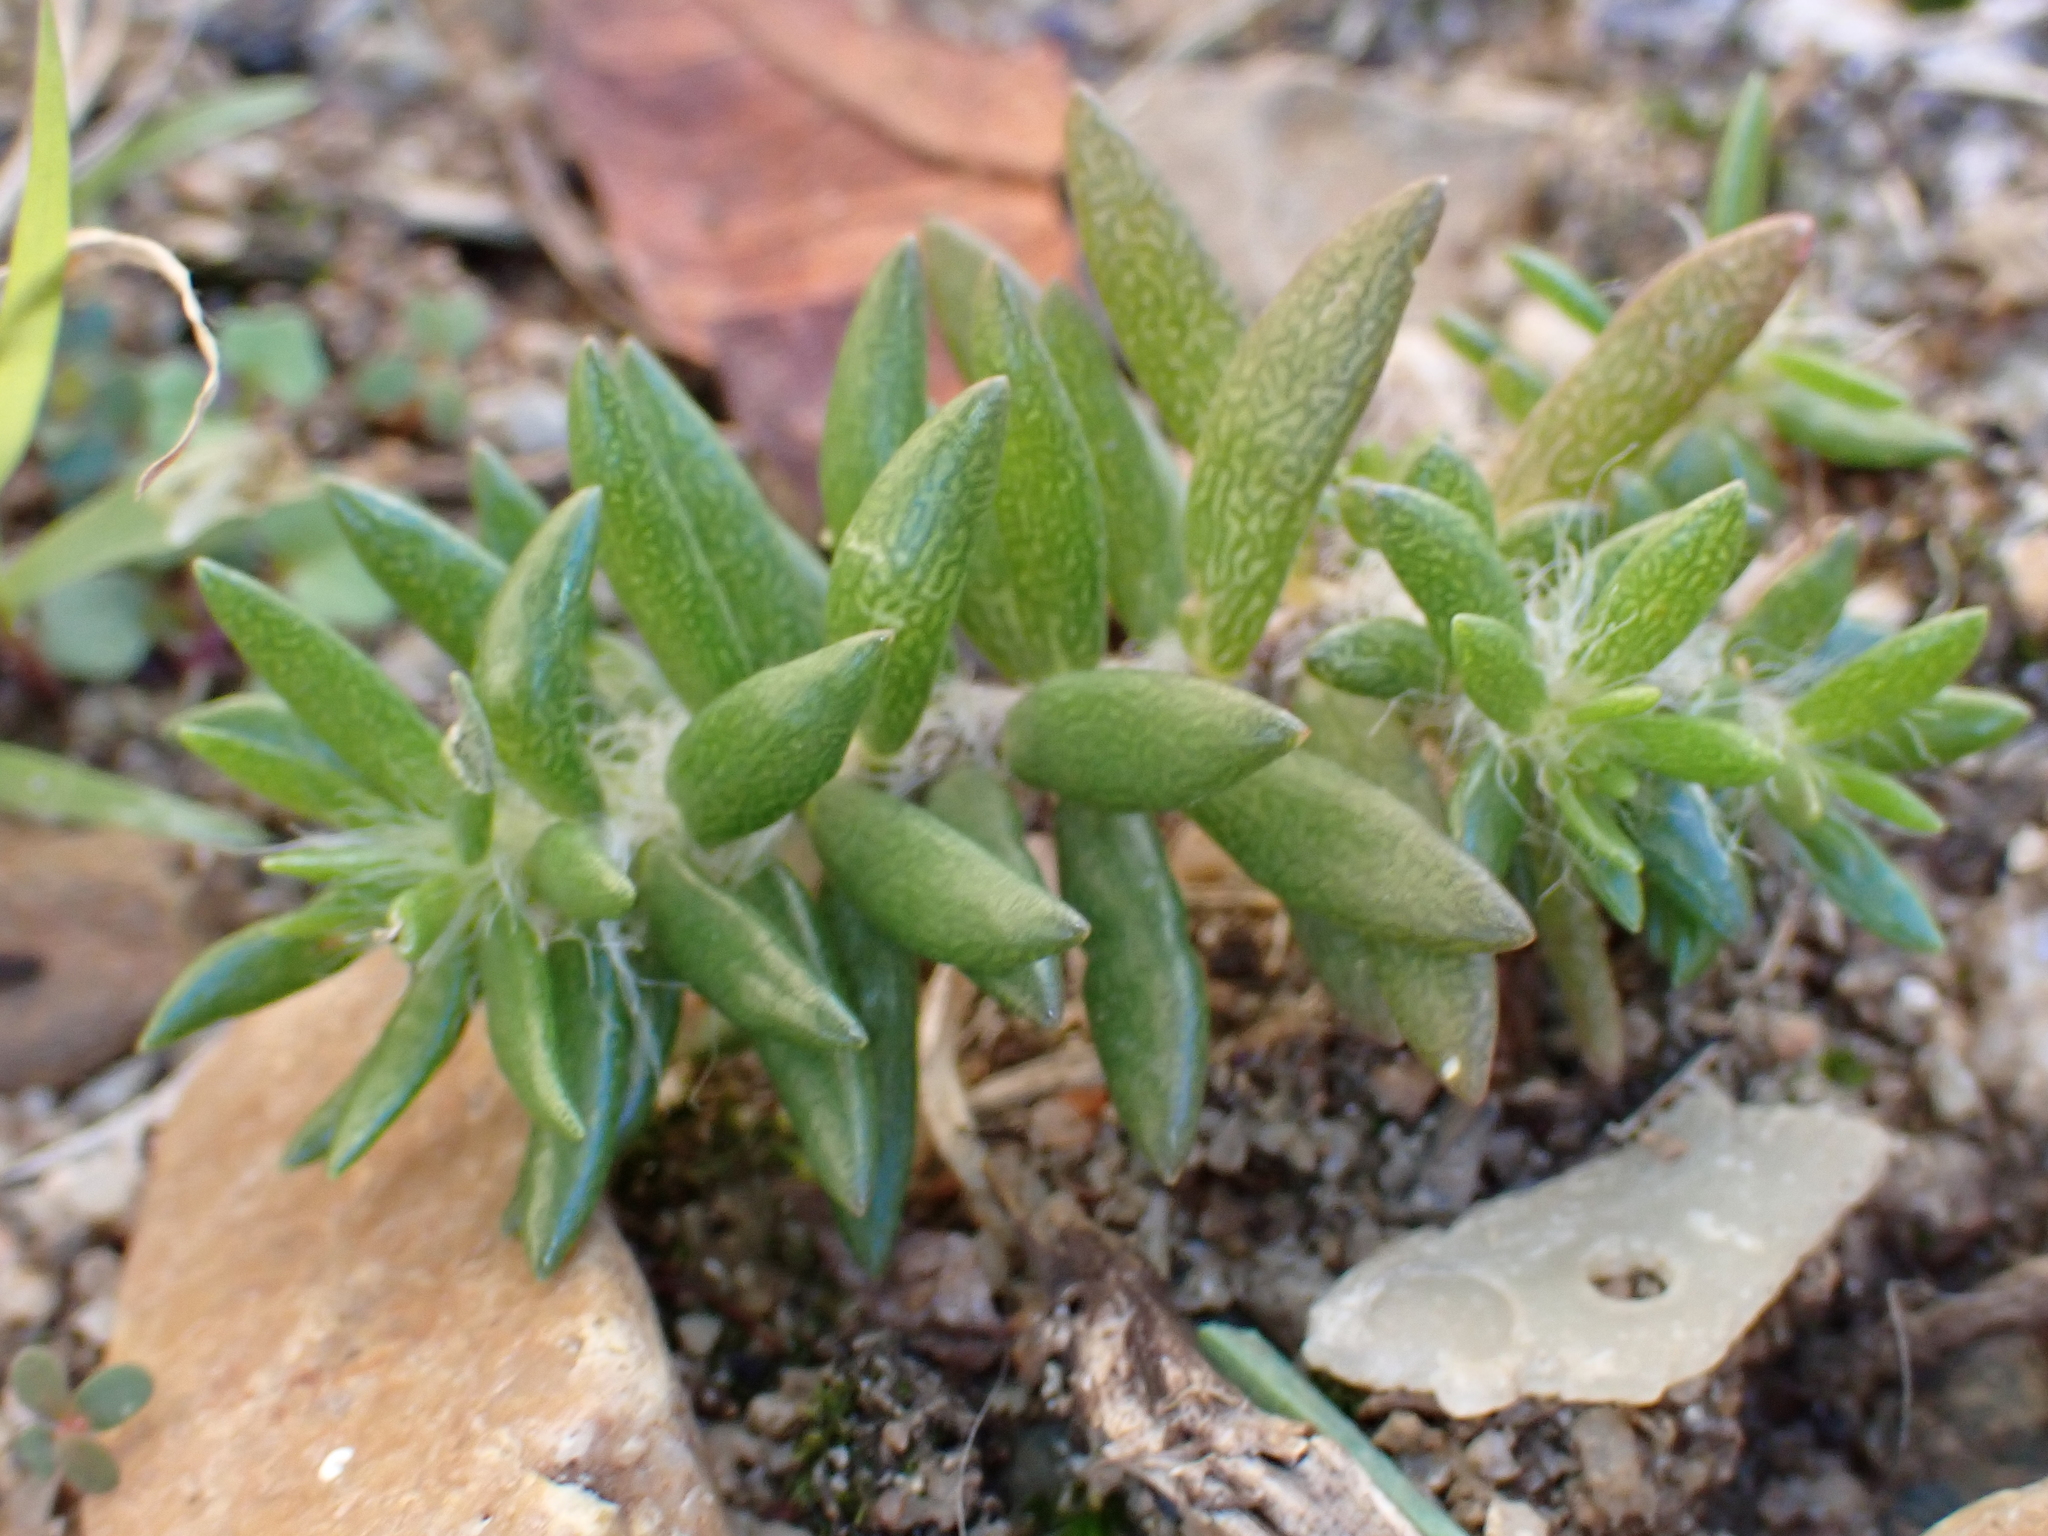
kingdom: Plantae
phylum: Tracheophyta
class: Magnoliopsida
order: Caryophyllales
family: Portulacaceae
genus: Portulaca
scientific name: Portulaca pilosa
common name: Kiss me quick
